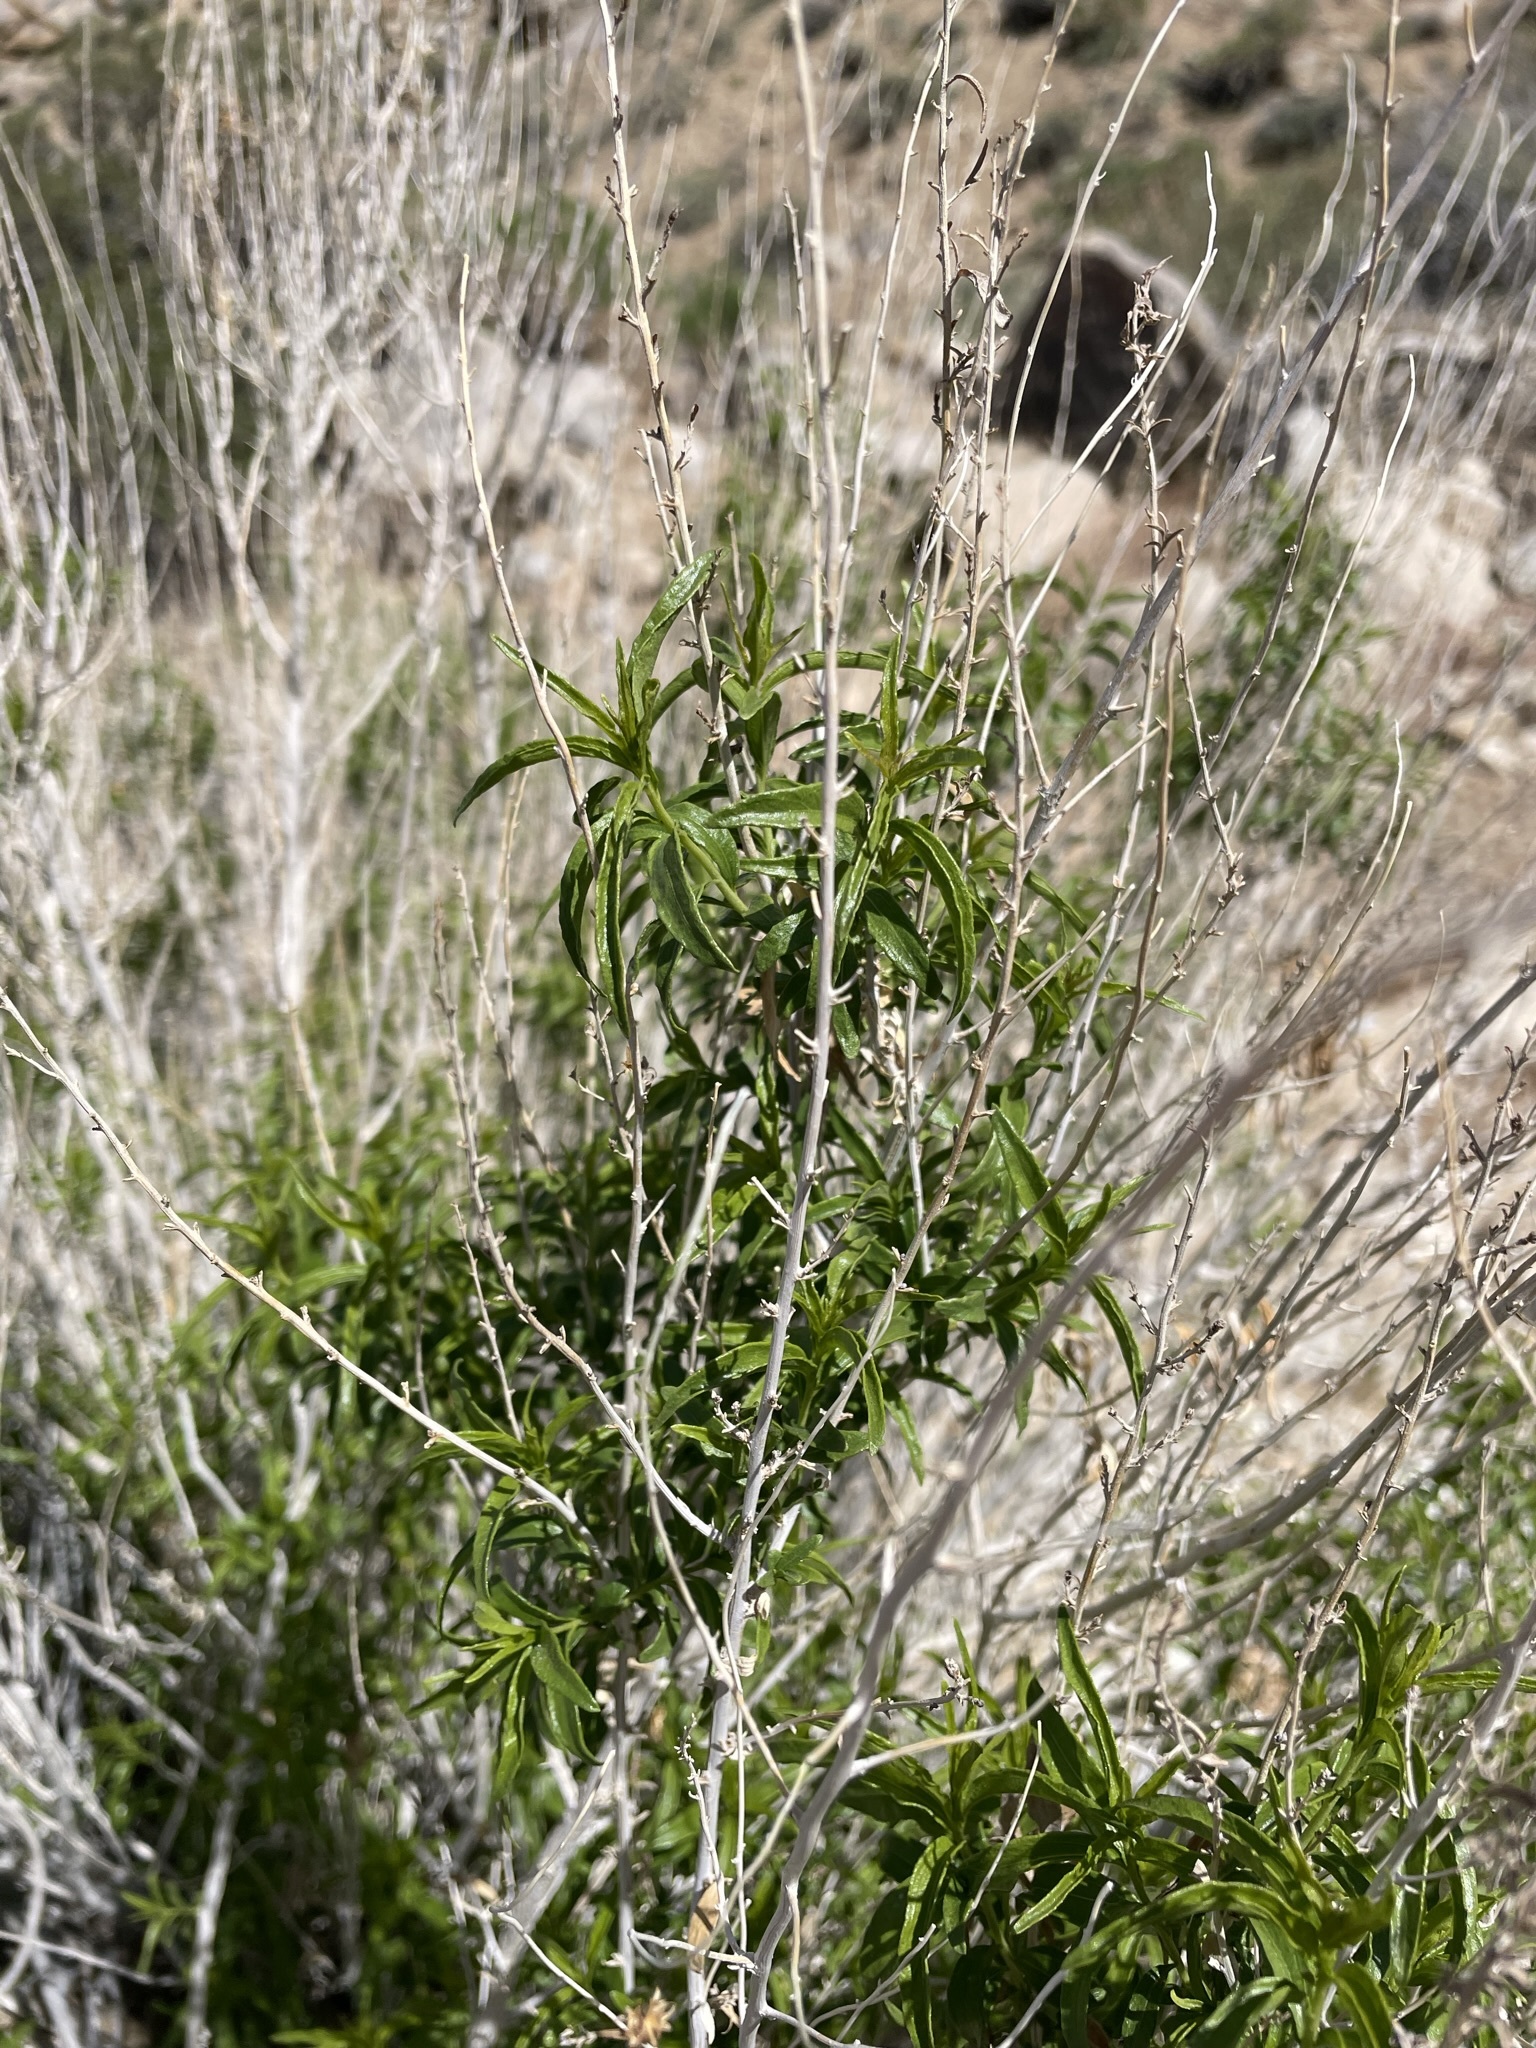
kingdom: Plantae
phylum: Tracheophyta
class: Magnoliopsida
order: Asterales
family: Asteraceae
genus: Brickellia
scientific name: Brickellia longifolia
